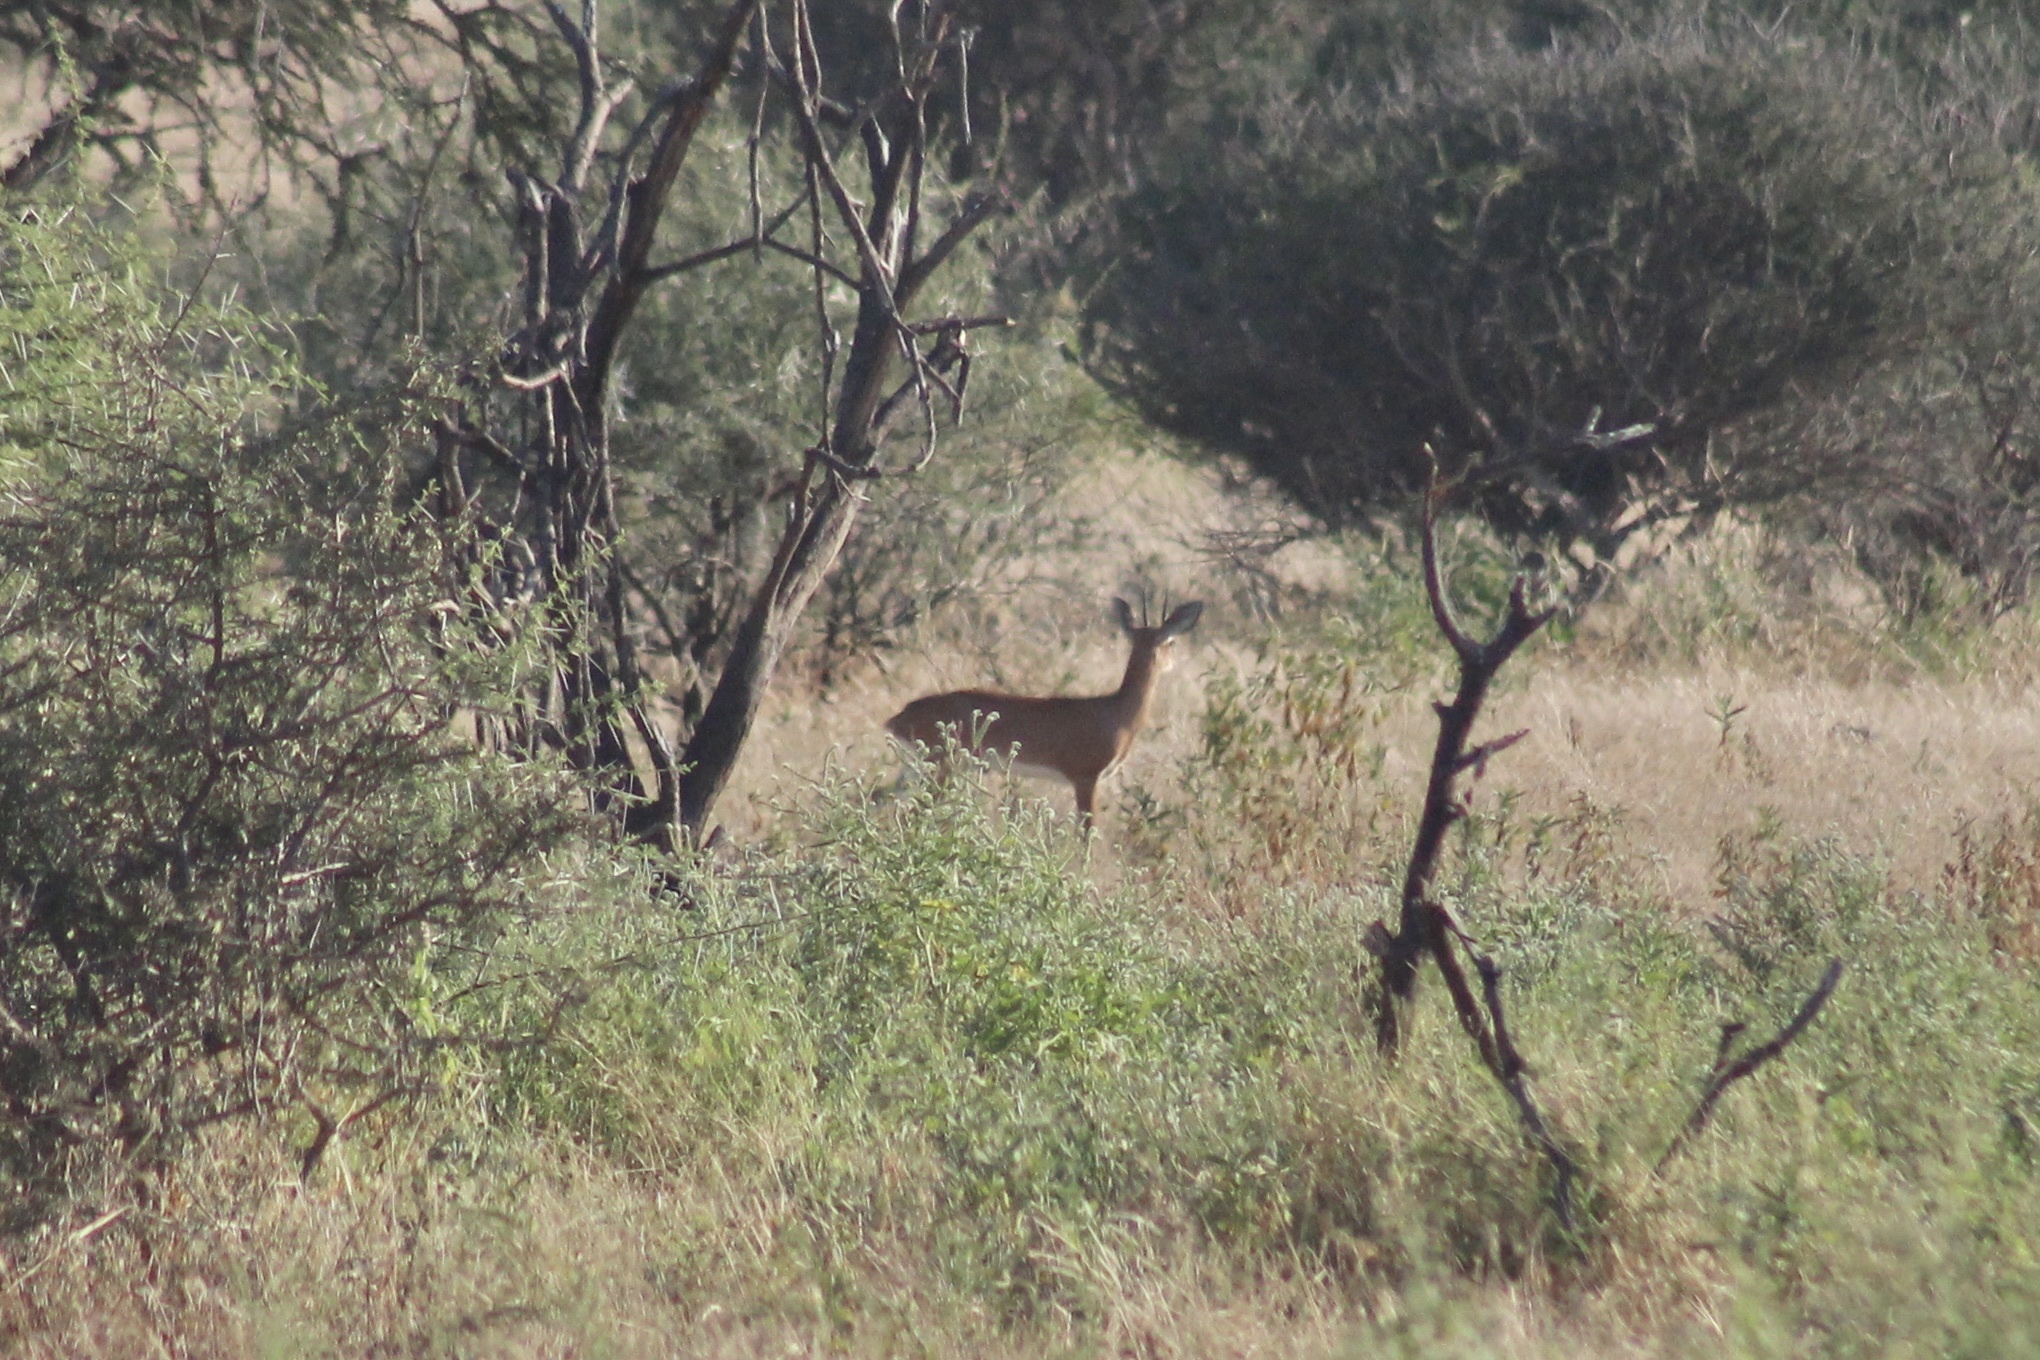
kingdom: Animalia
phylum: Chordata
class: Mammalia
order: Artiodactyla
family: Bovidae
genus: Raphicerus
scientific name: Raphicerus campestris
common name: Steenbok
